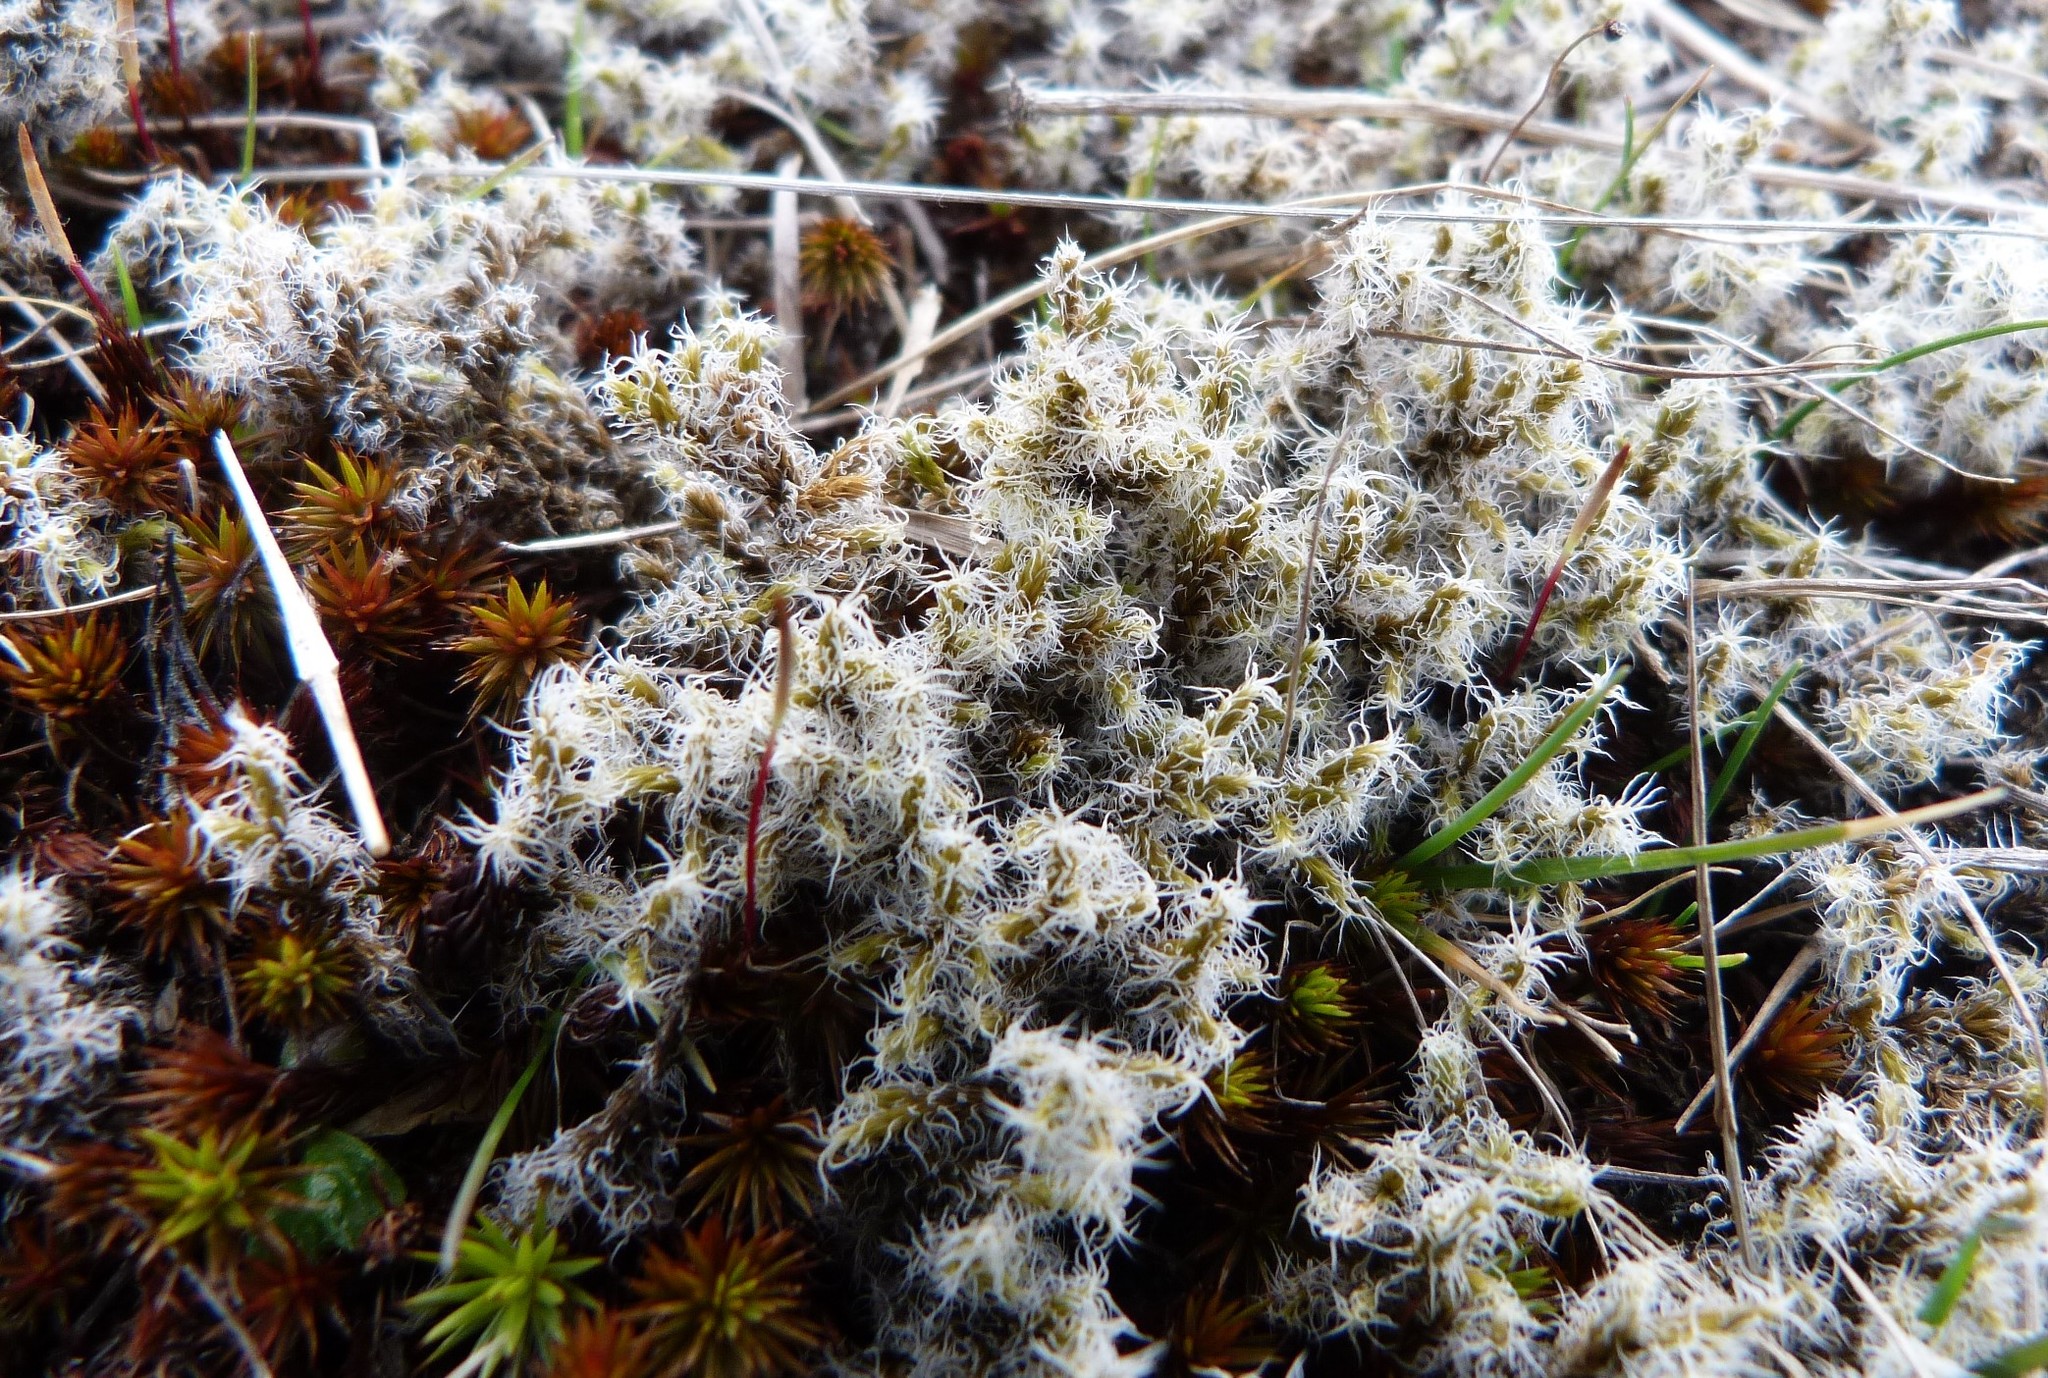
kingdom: Plantae
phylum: Bryophyta
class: Bryopsida
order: Grimmiales
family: Grimmiaceae
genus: Racomitrium
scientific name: Racomitrium lanuginosum
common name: Hoary rock moss
